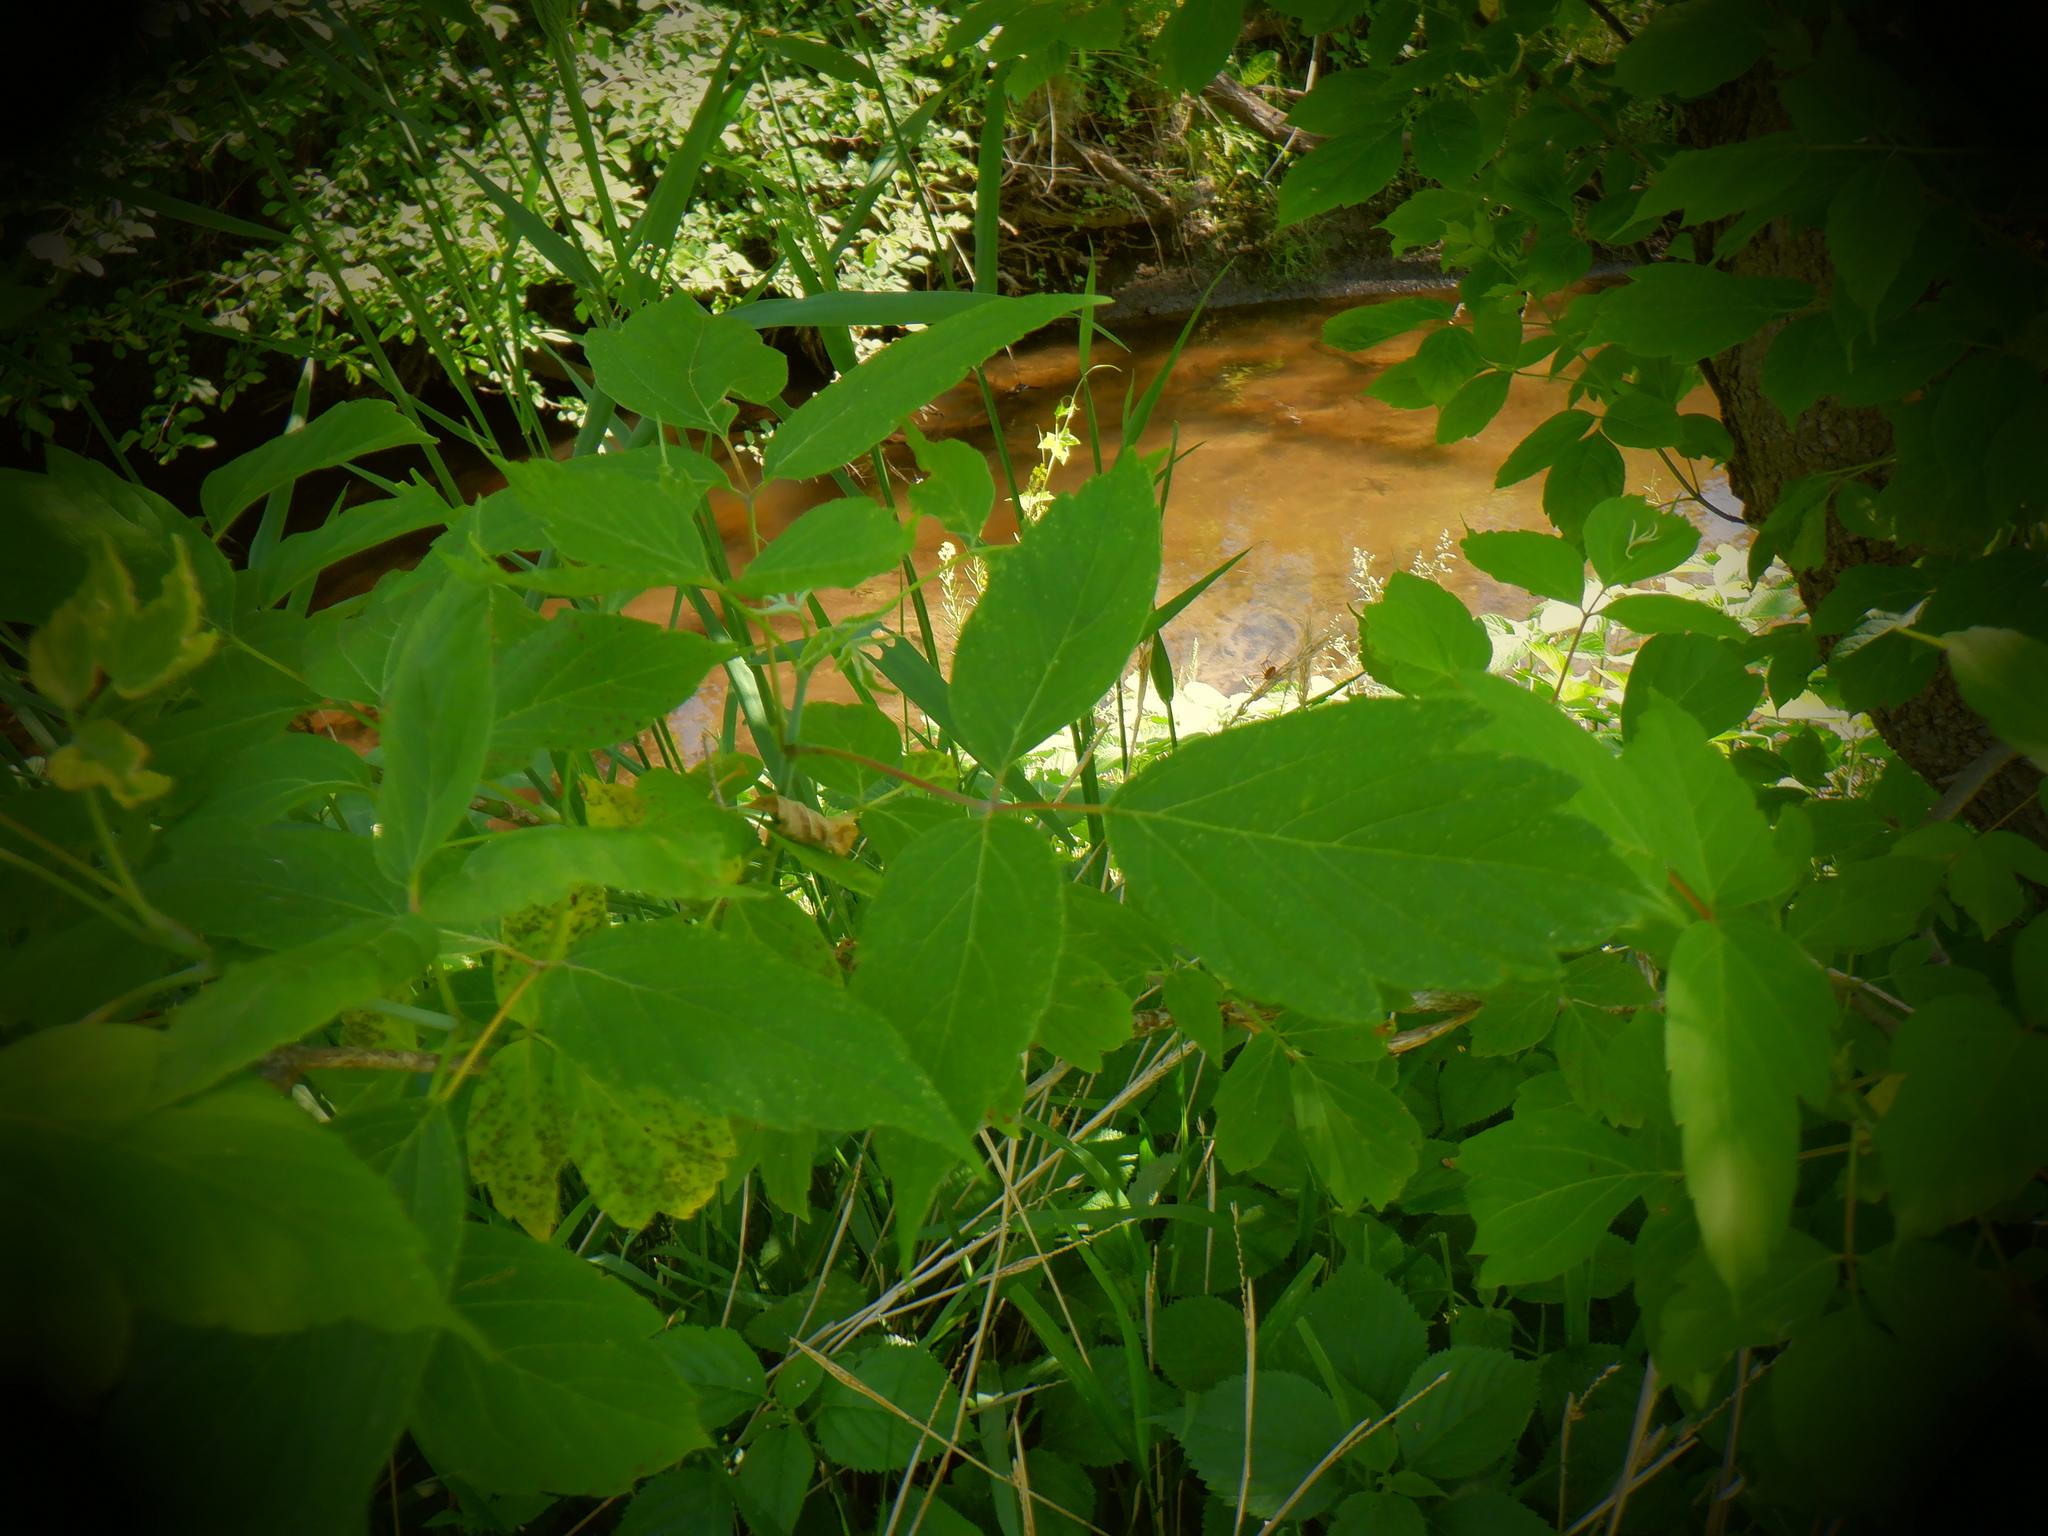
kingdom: Plantae
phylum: Tracheophyta
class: Magnoliopsida
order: Sapindales
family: Sapindaceae
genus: Acer
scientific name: Acer negundo
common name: Ashleaf maple
